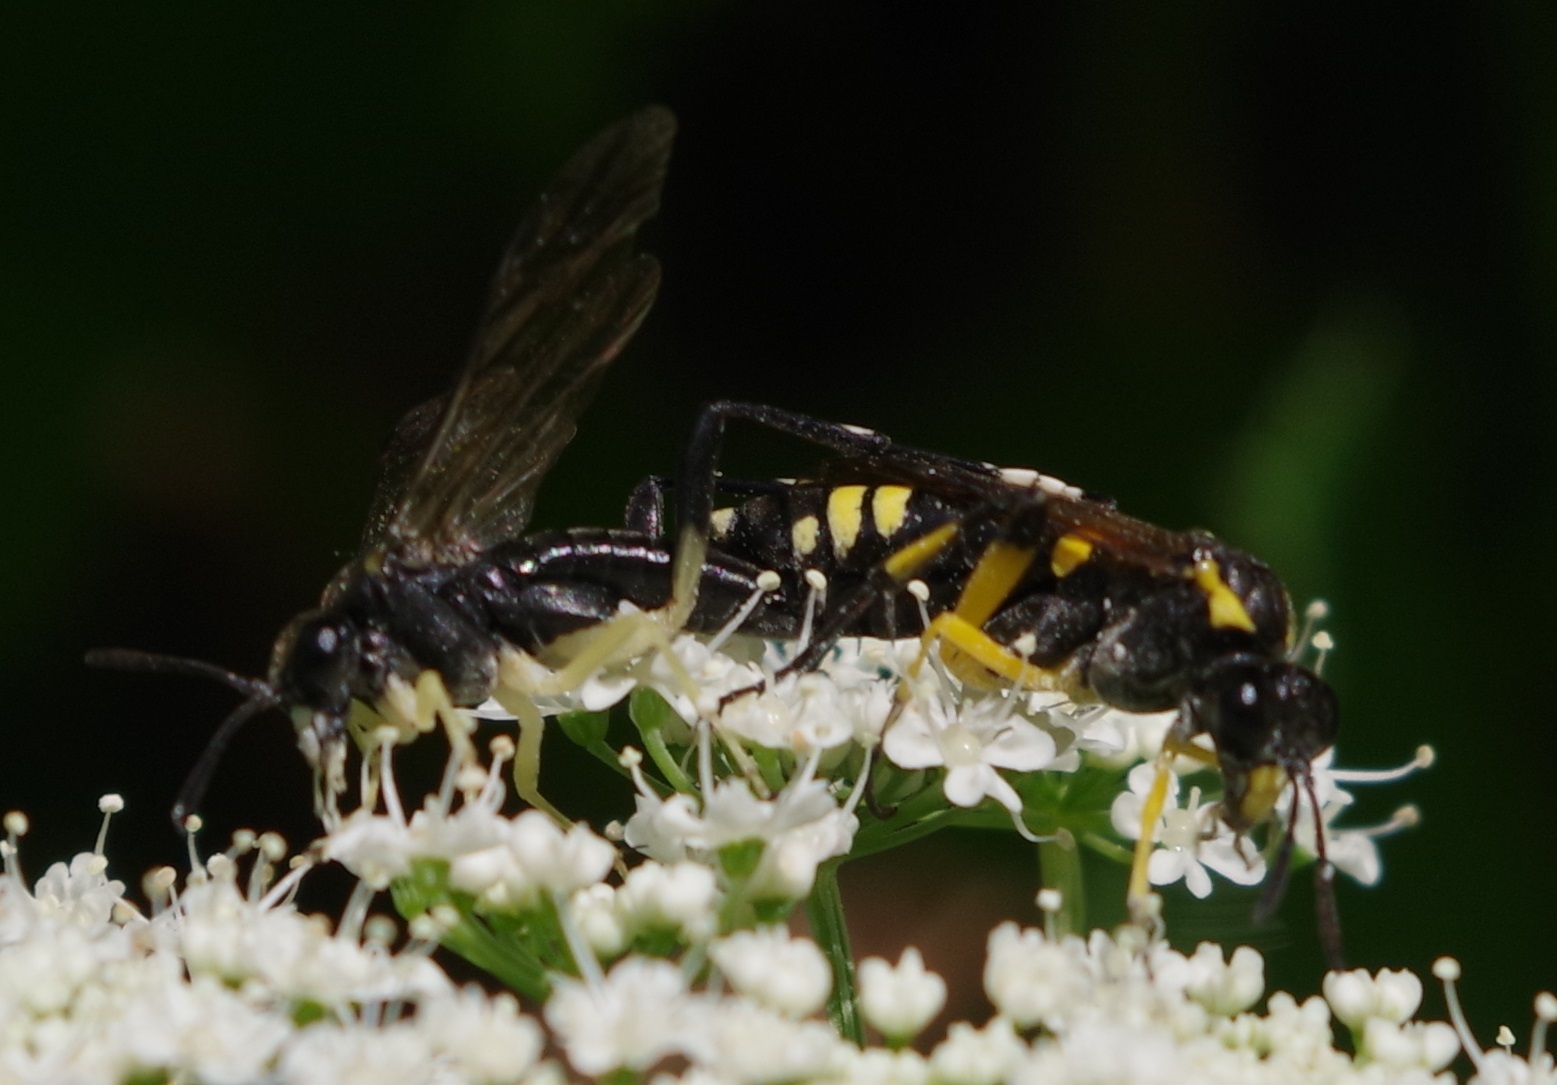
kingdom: Animalia
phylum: Arthropoda
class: Insecta
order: Hymenoptera
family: Tenthredinidae
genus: Macrophya
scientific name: Macrophya montana
